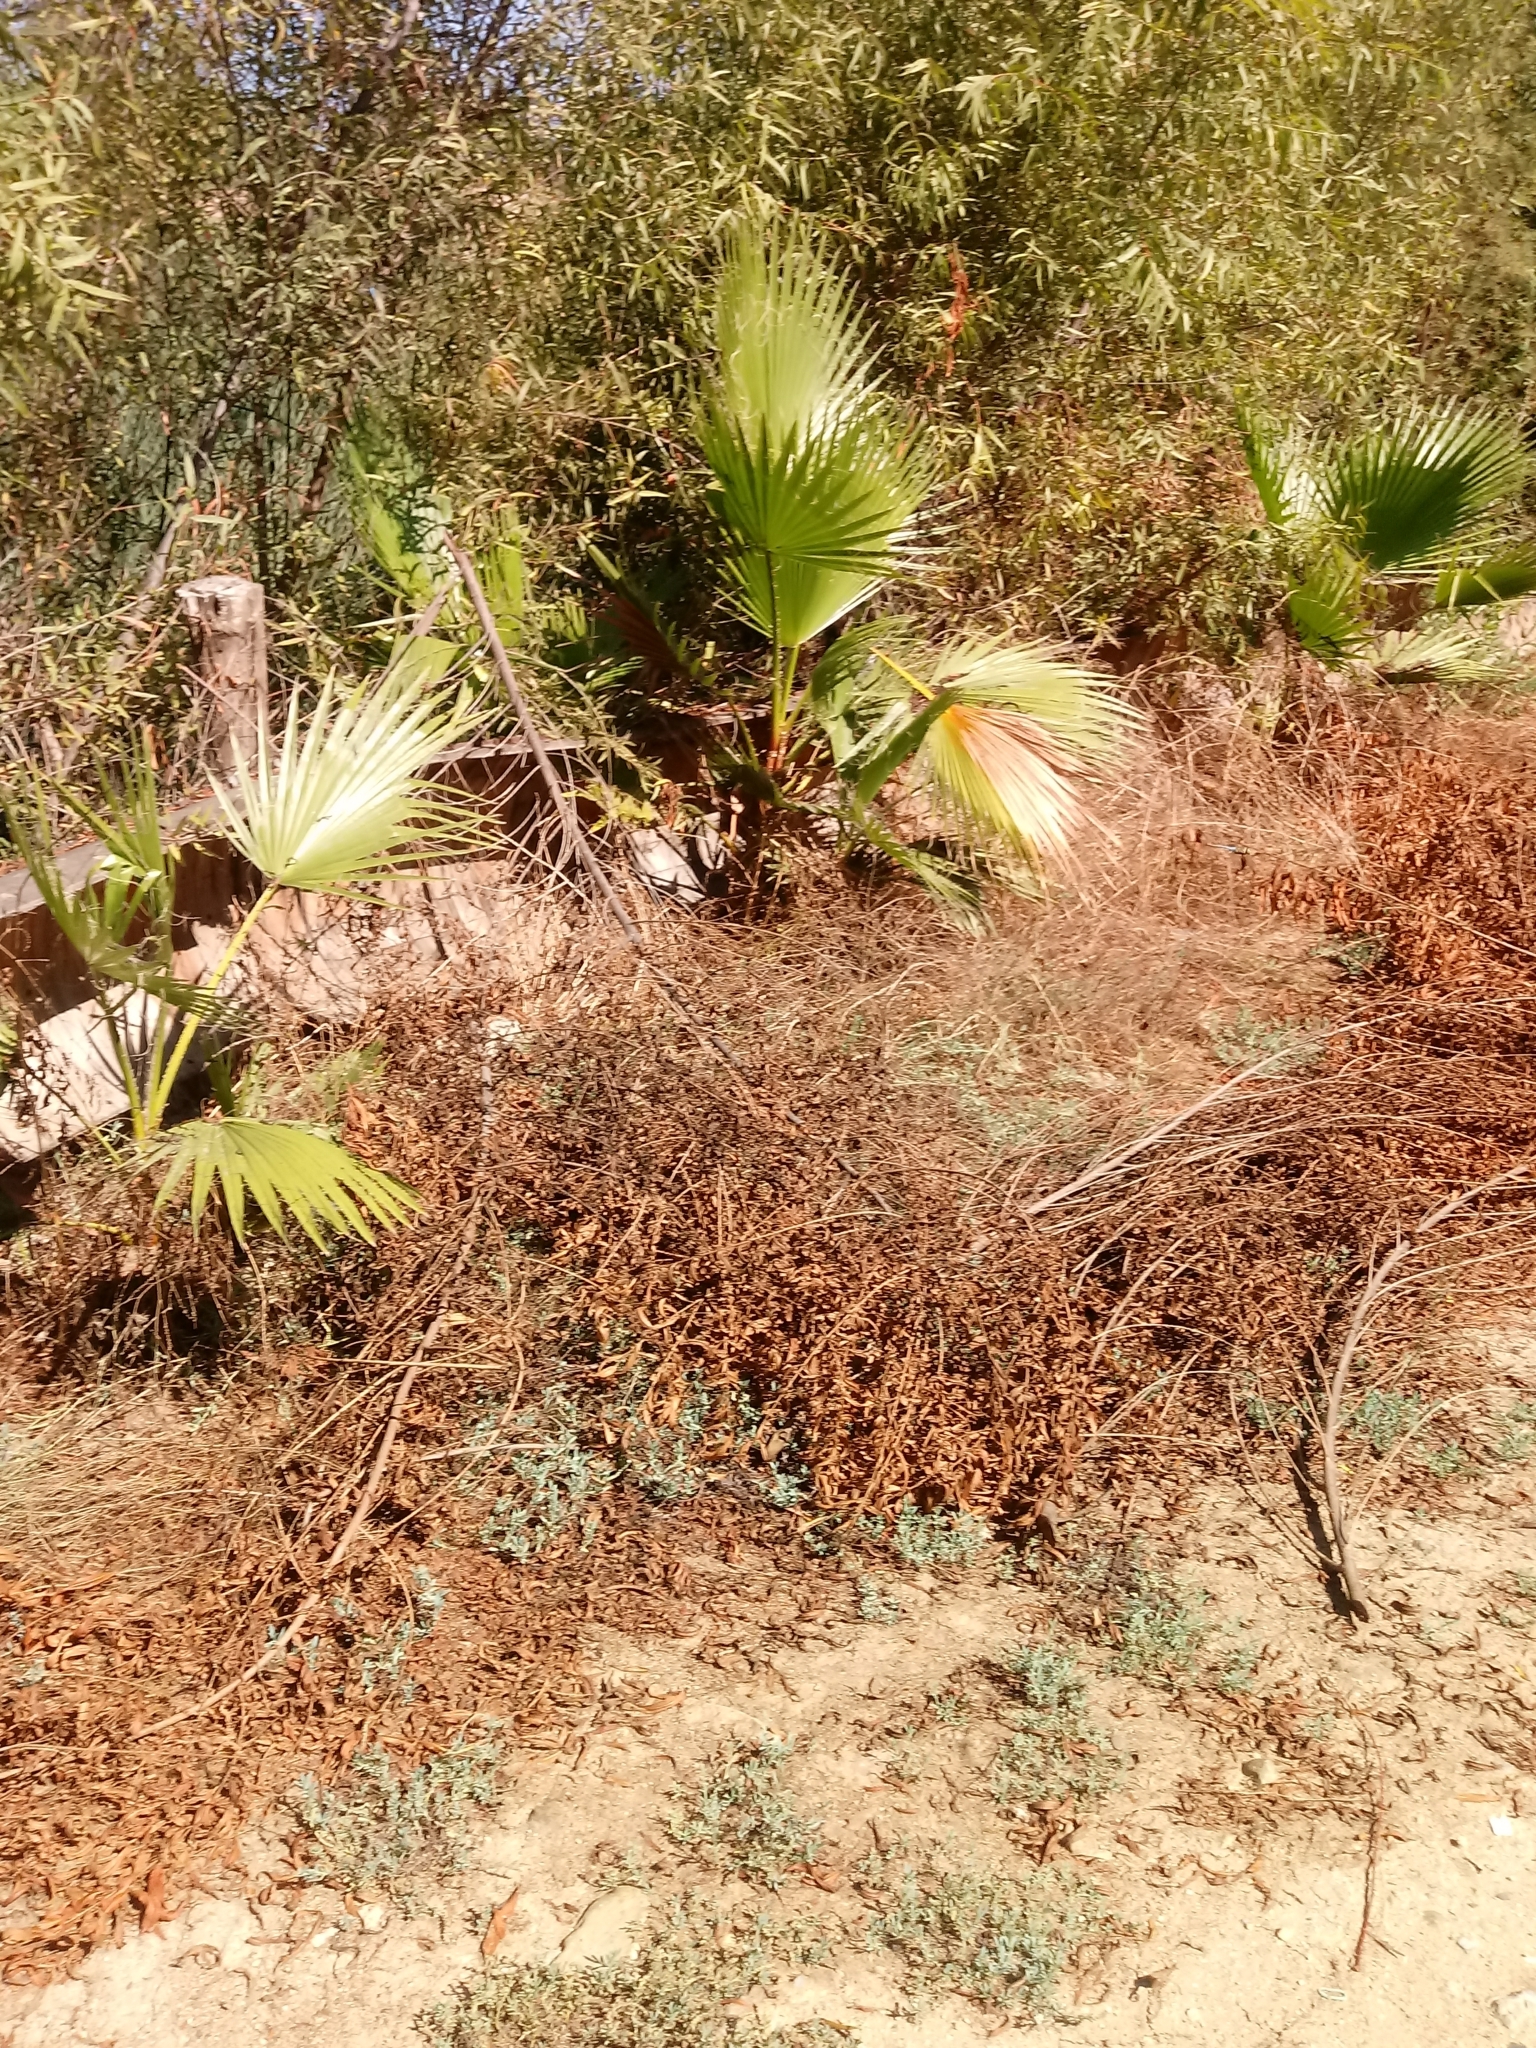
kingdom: Plantae
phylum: Tracheophyta
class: Liliopsida
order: Arecales
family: Arecaceae
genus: Washingtonia
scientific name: Washingtonia robusta
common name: Mexican fan palm
